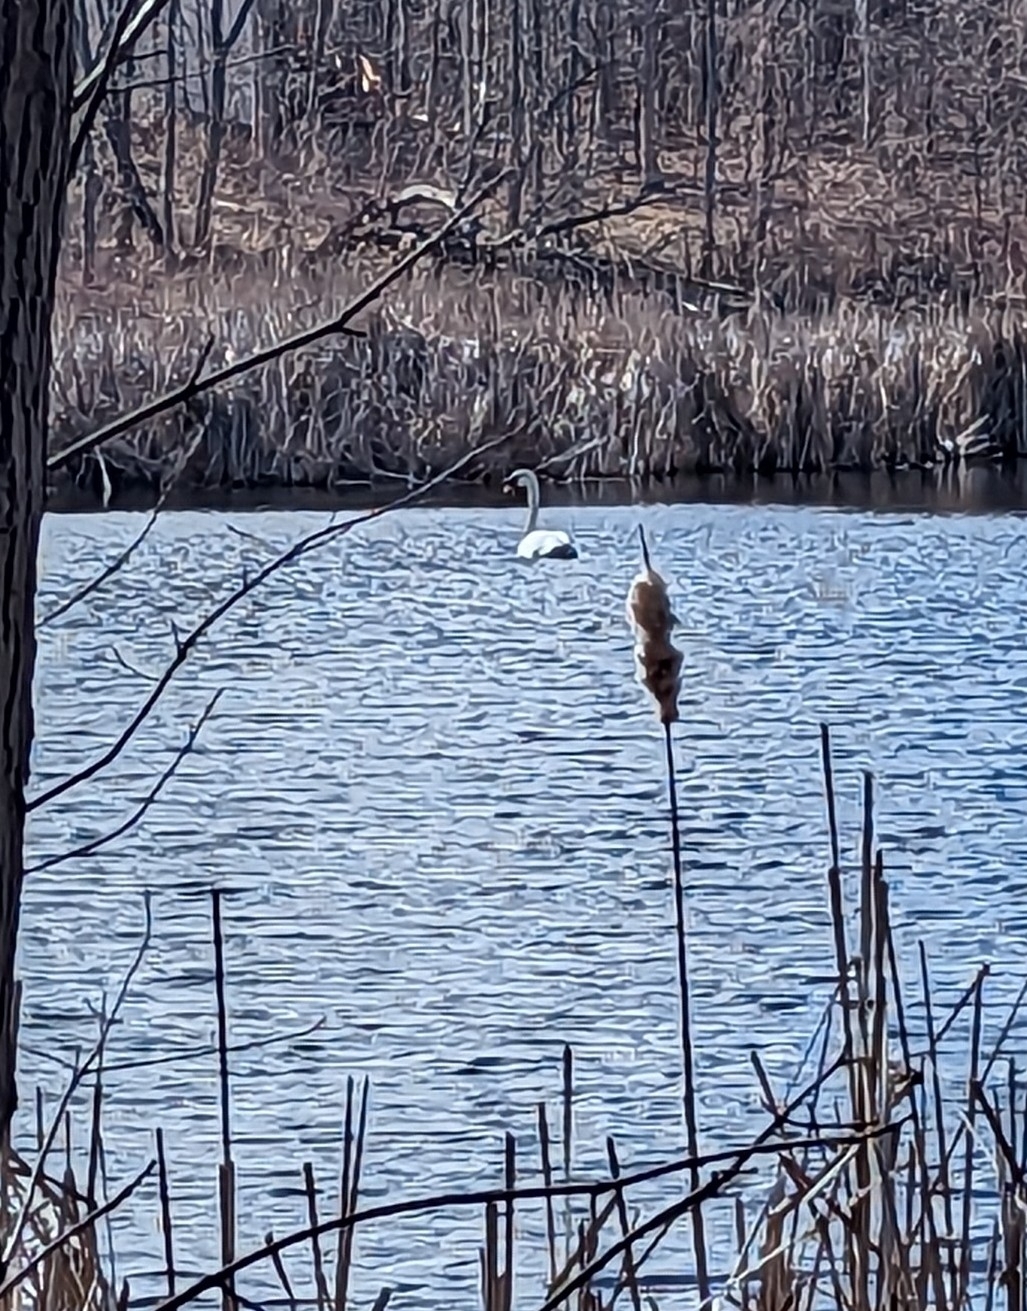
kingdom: Animalia
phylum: Chordata
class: Aves
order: Anseriformes
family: Anatidae
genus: Cygnus
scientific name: Cygnus olor
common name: Mute swan
